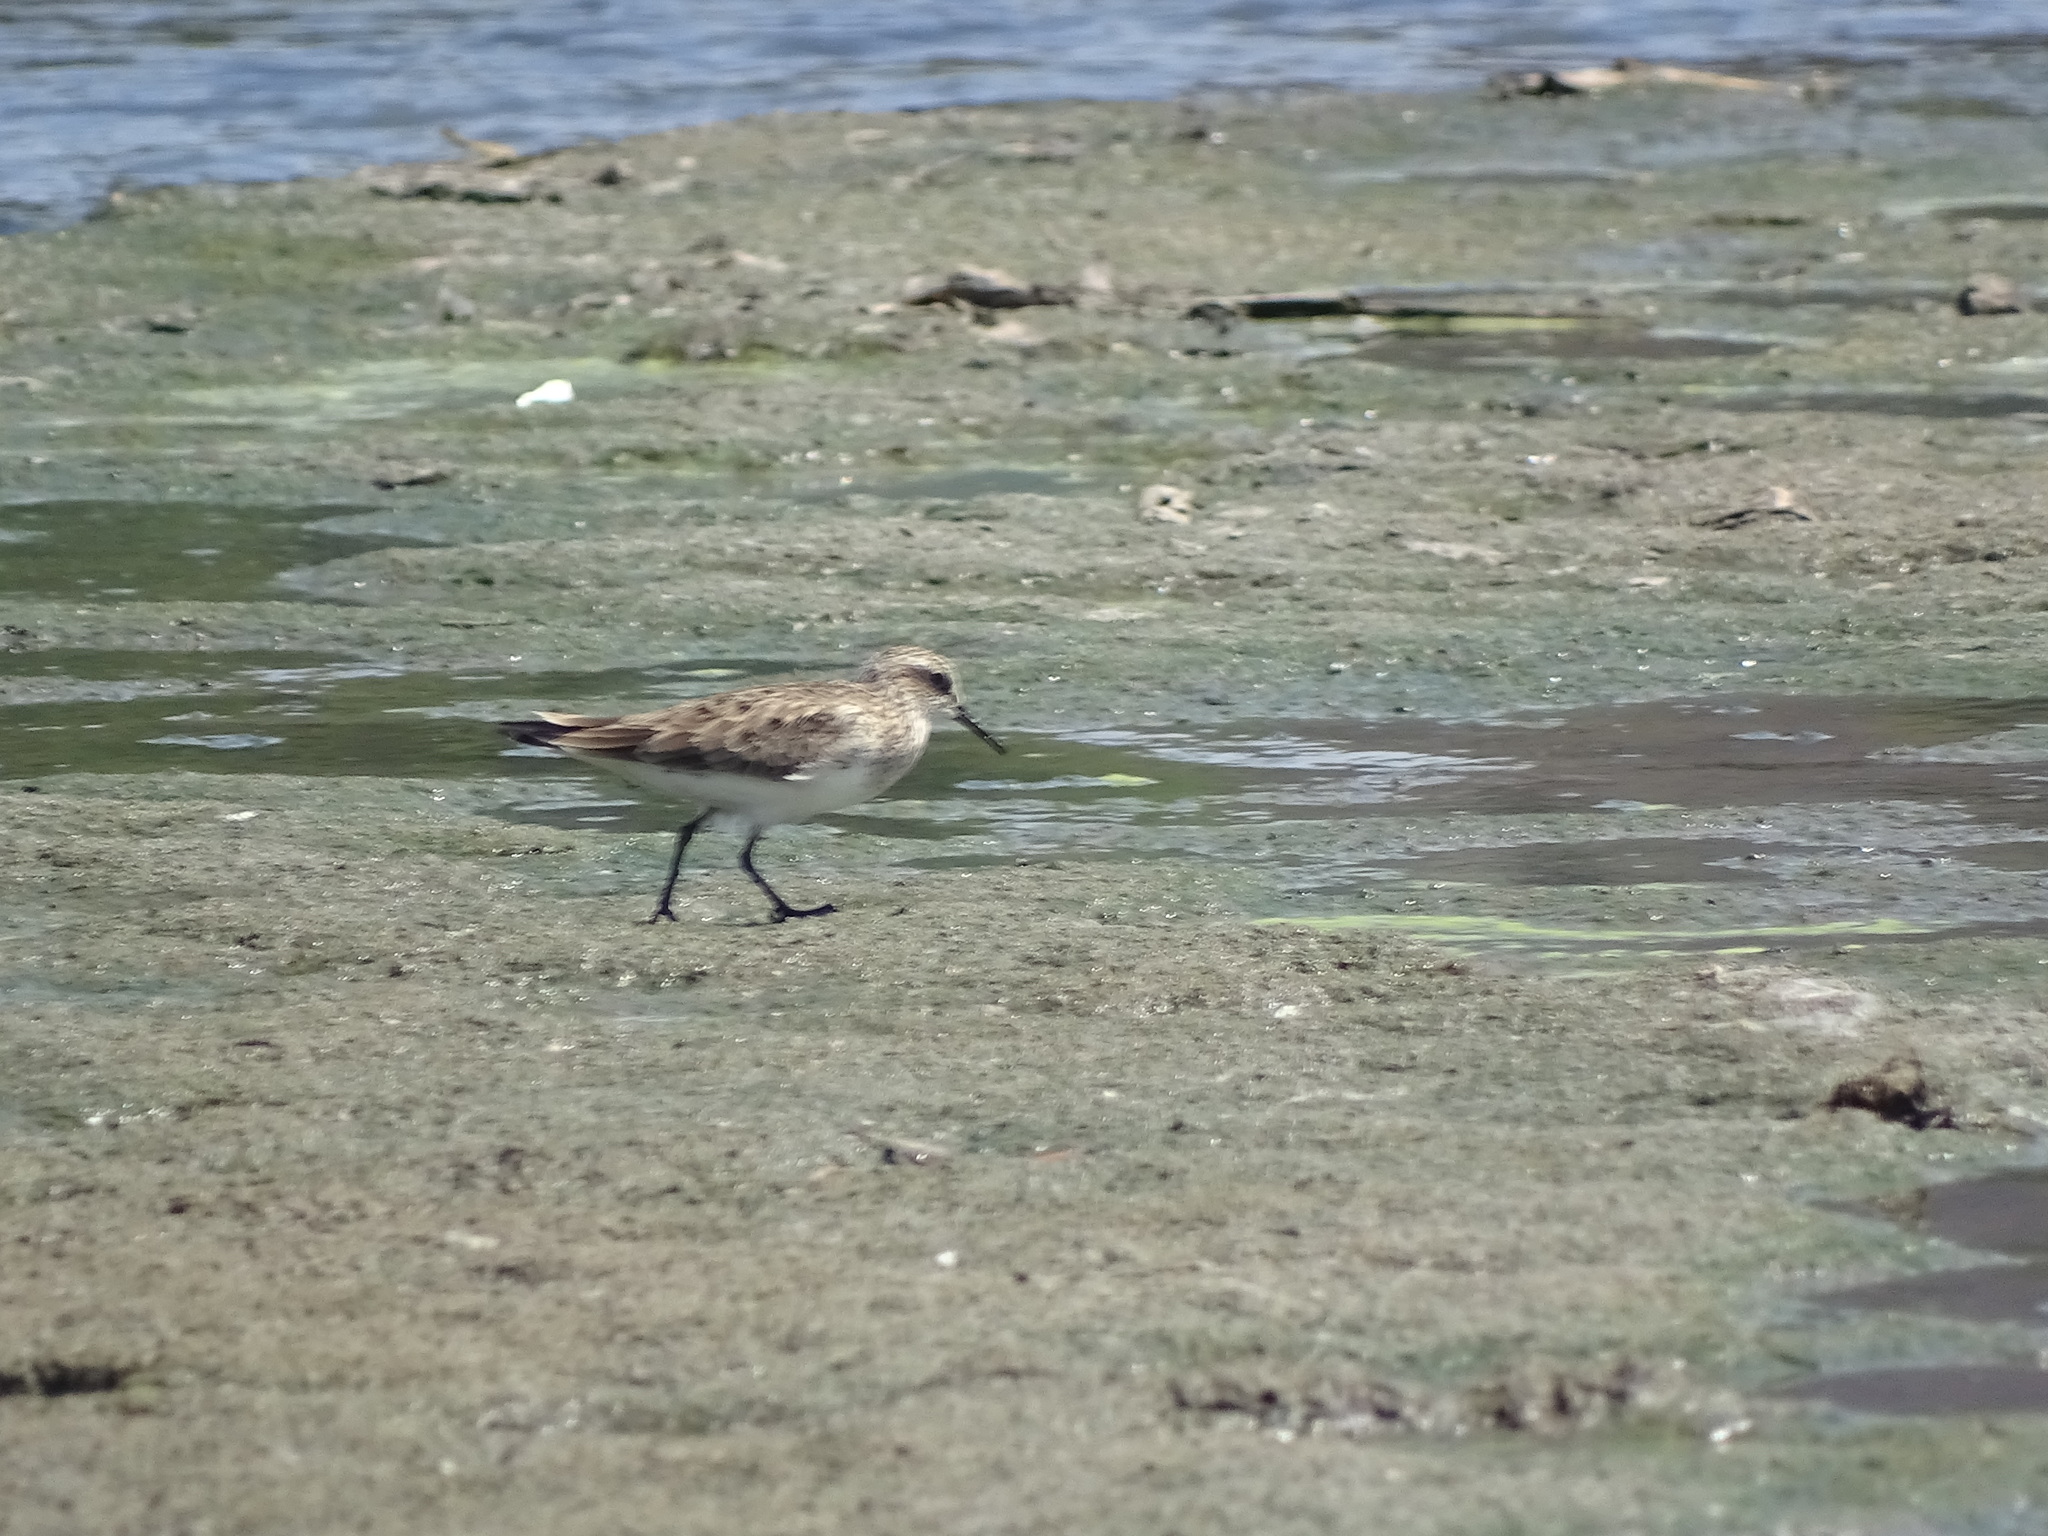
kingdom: Animalia
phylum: Chordata
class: Aves
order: Charadriiformes
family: Scolopacidae
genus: Calidris
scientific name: Calidris bairdii
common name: Baird's sandpiper
